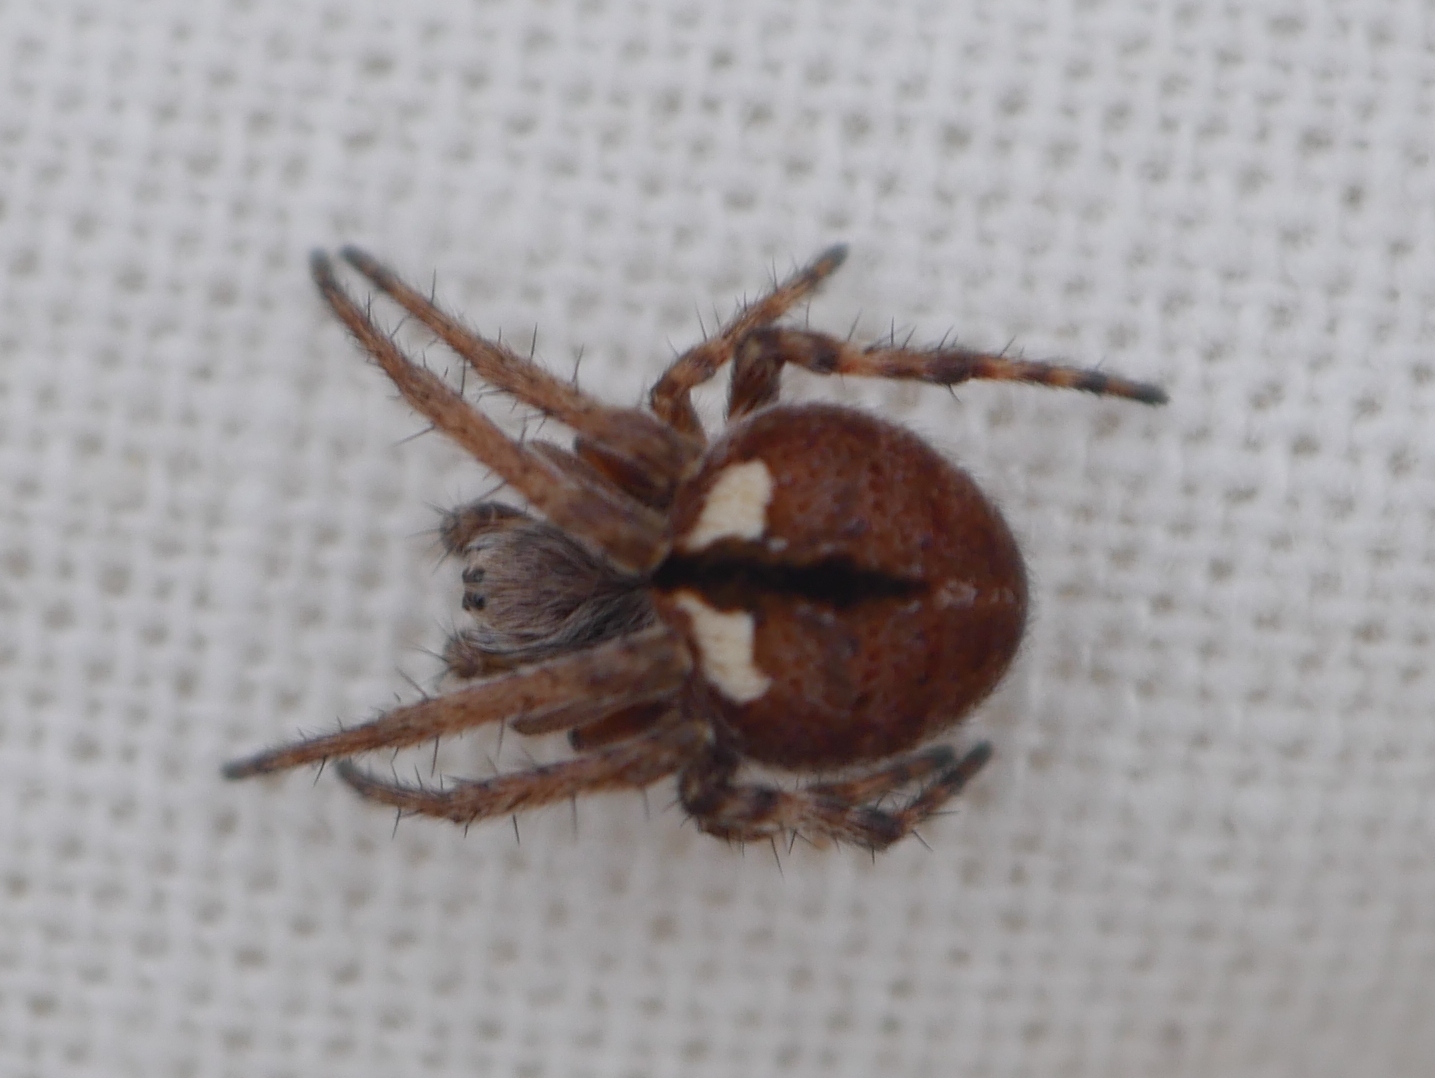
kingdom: Animalia
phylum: Arthropoda
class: Arachnida
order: Araneae
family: Araneidae
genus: Agalenatea
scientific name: Agalenatea redii
